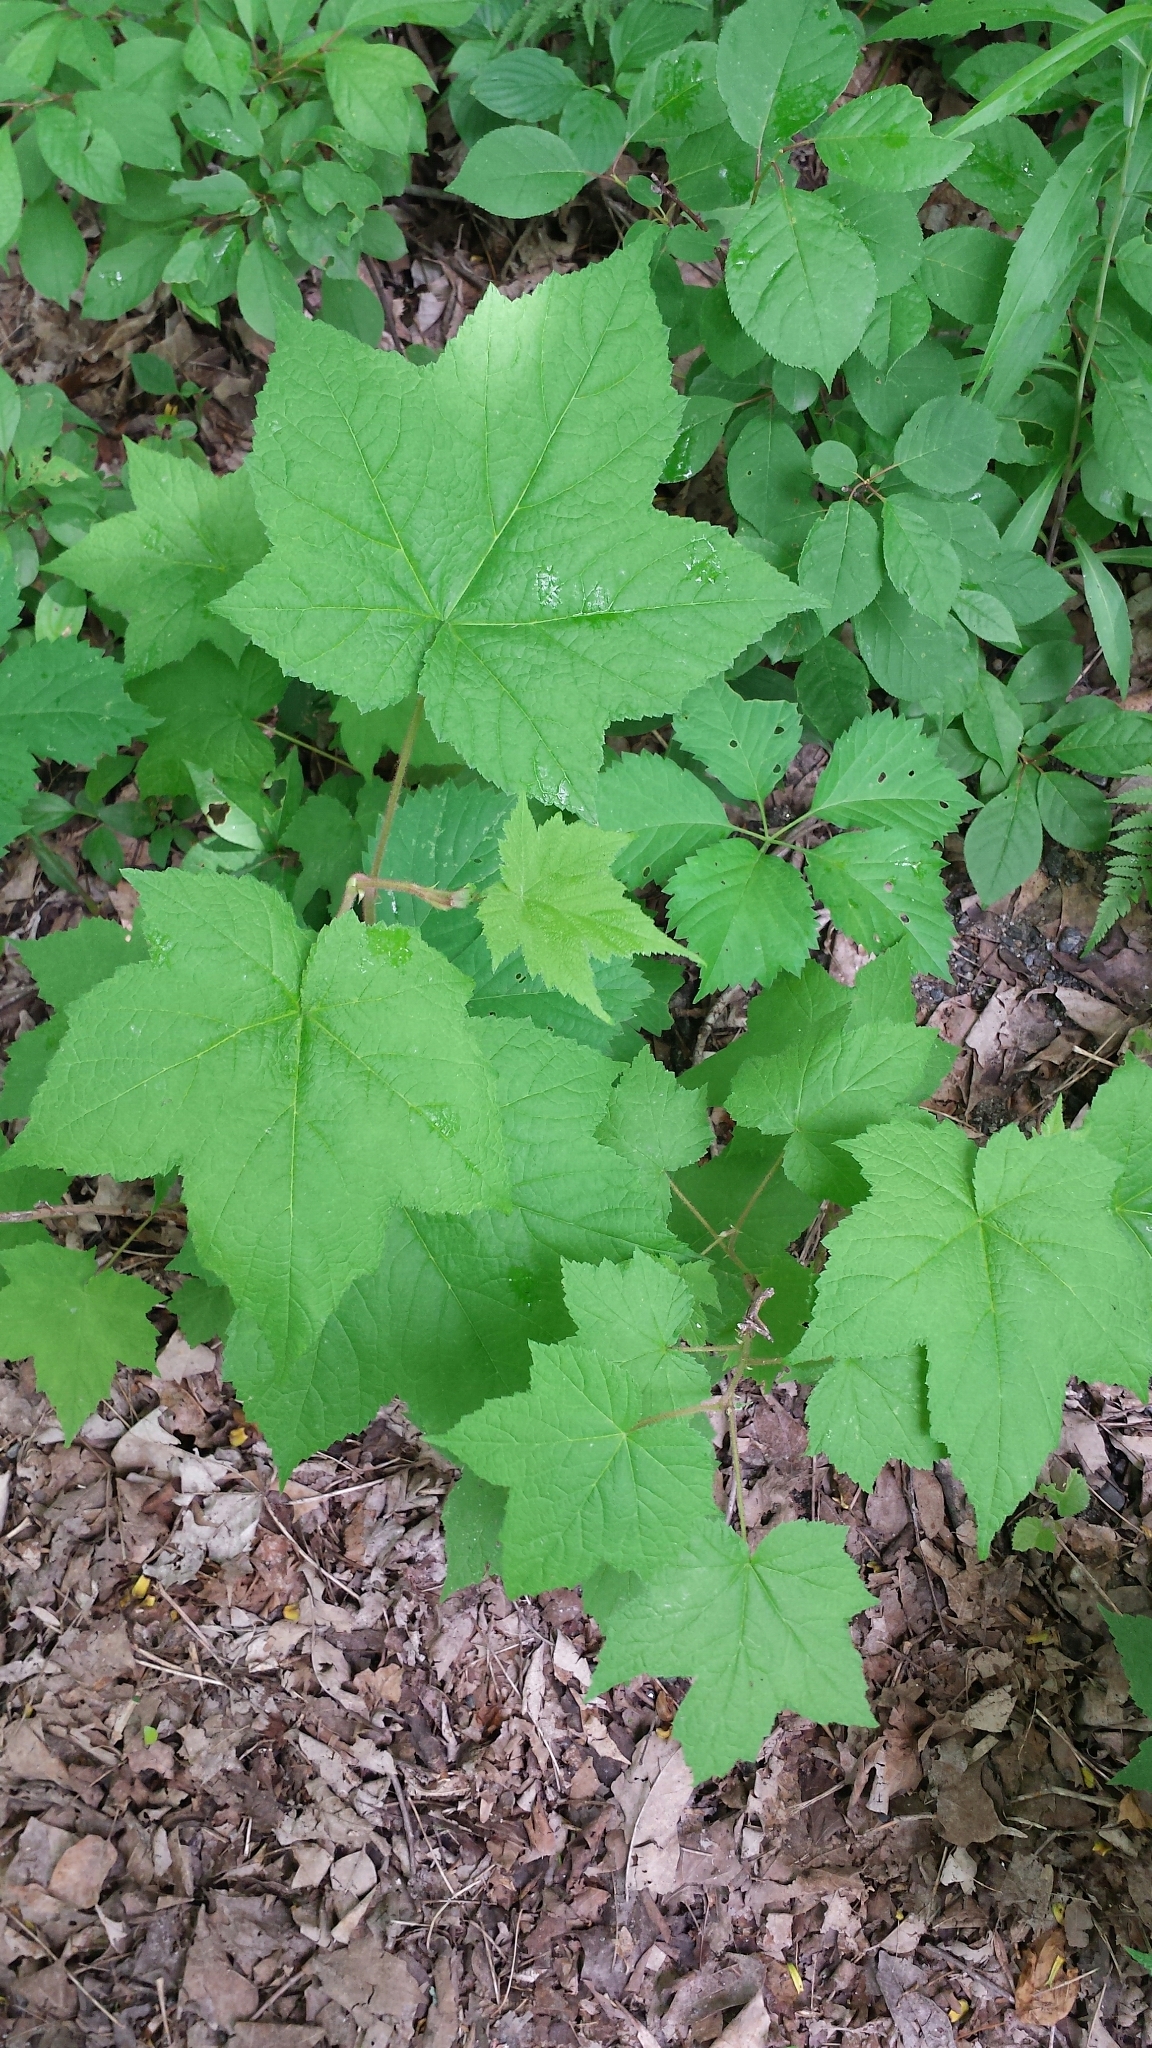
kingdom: Plantae
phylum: Tracheophyta
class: Magnoliopsida
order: Rosales
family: Rosaceae
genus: Rubus
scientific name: Rubus odoratus
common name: Purple-flowered raspberry
